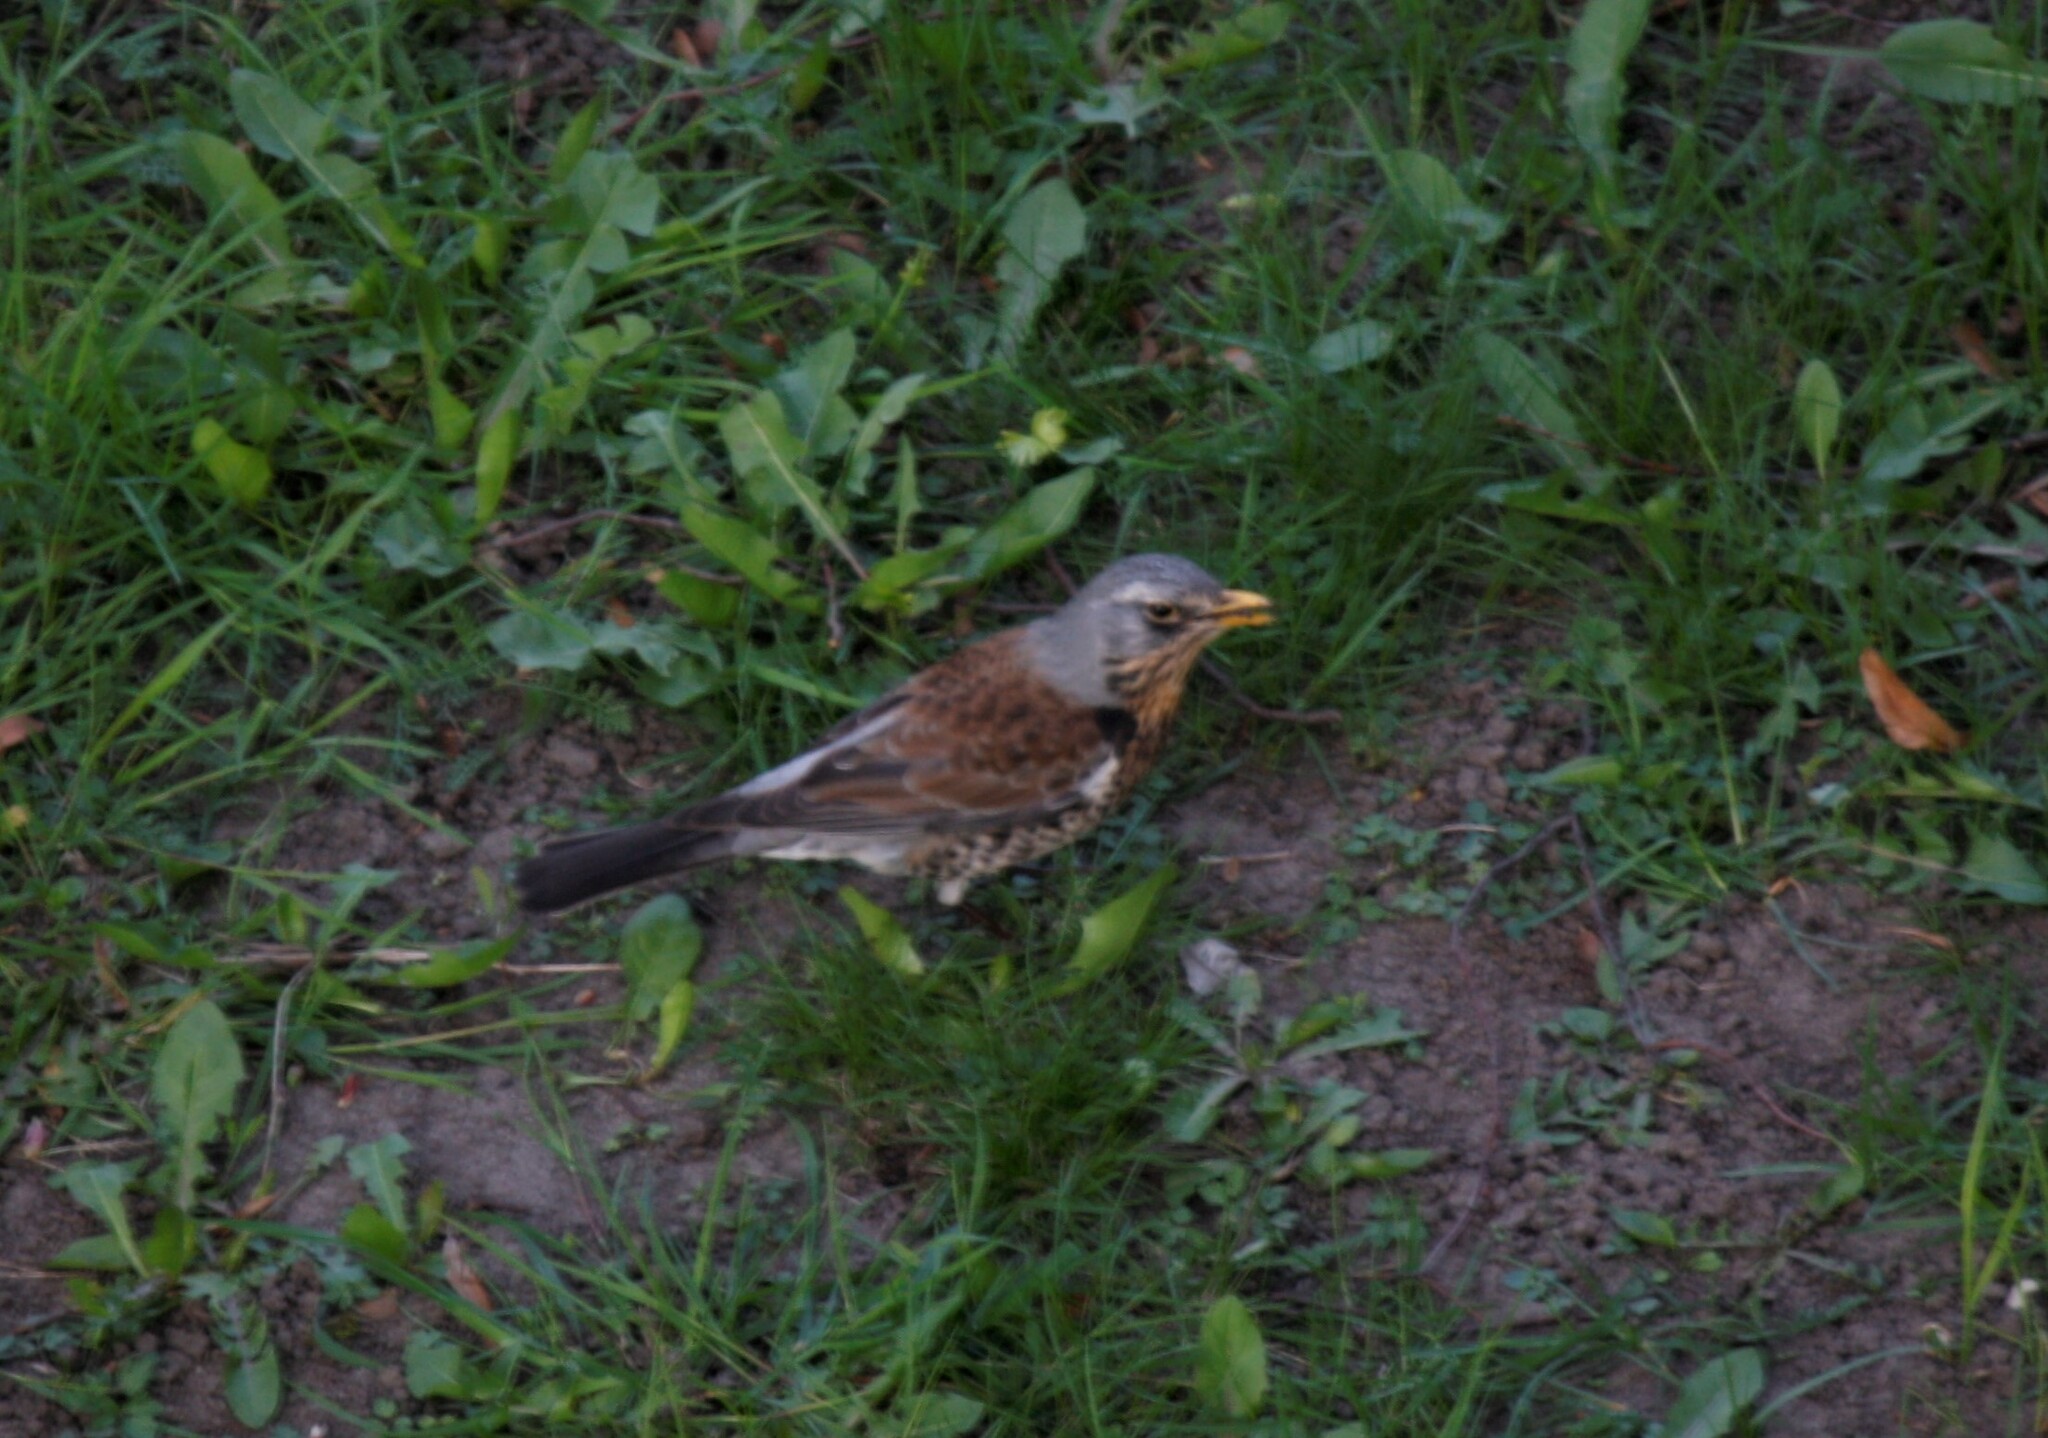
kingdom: Animalia
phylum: Chordata
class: Aves
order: Passeriformes
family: Turdidae
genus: Turdus
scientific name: Turdus pilaris
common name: Fieldfare
